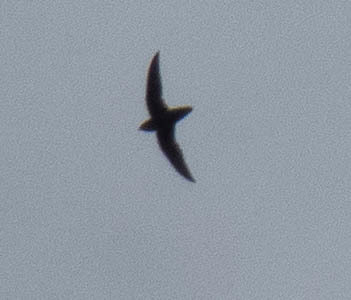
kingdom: Animalia
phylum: Chordata
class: Aves
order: Apodiformes
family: Apodidae
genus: Chaetura
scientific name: Chaetura pelagica
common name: Chimney swift
